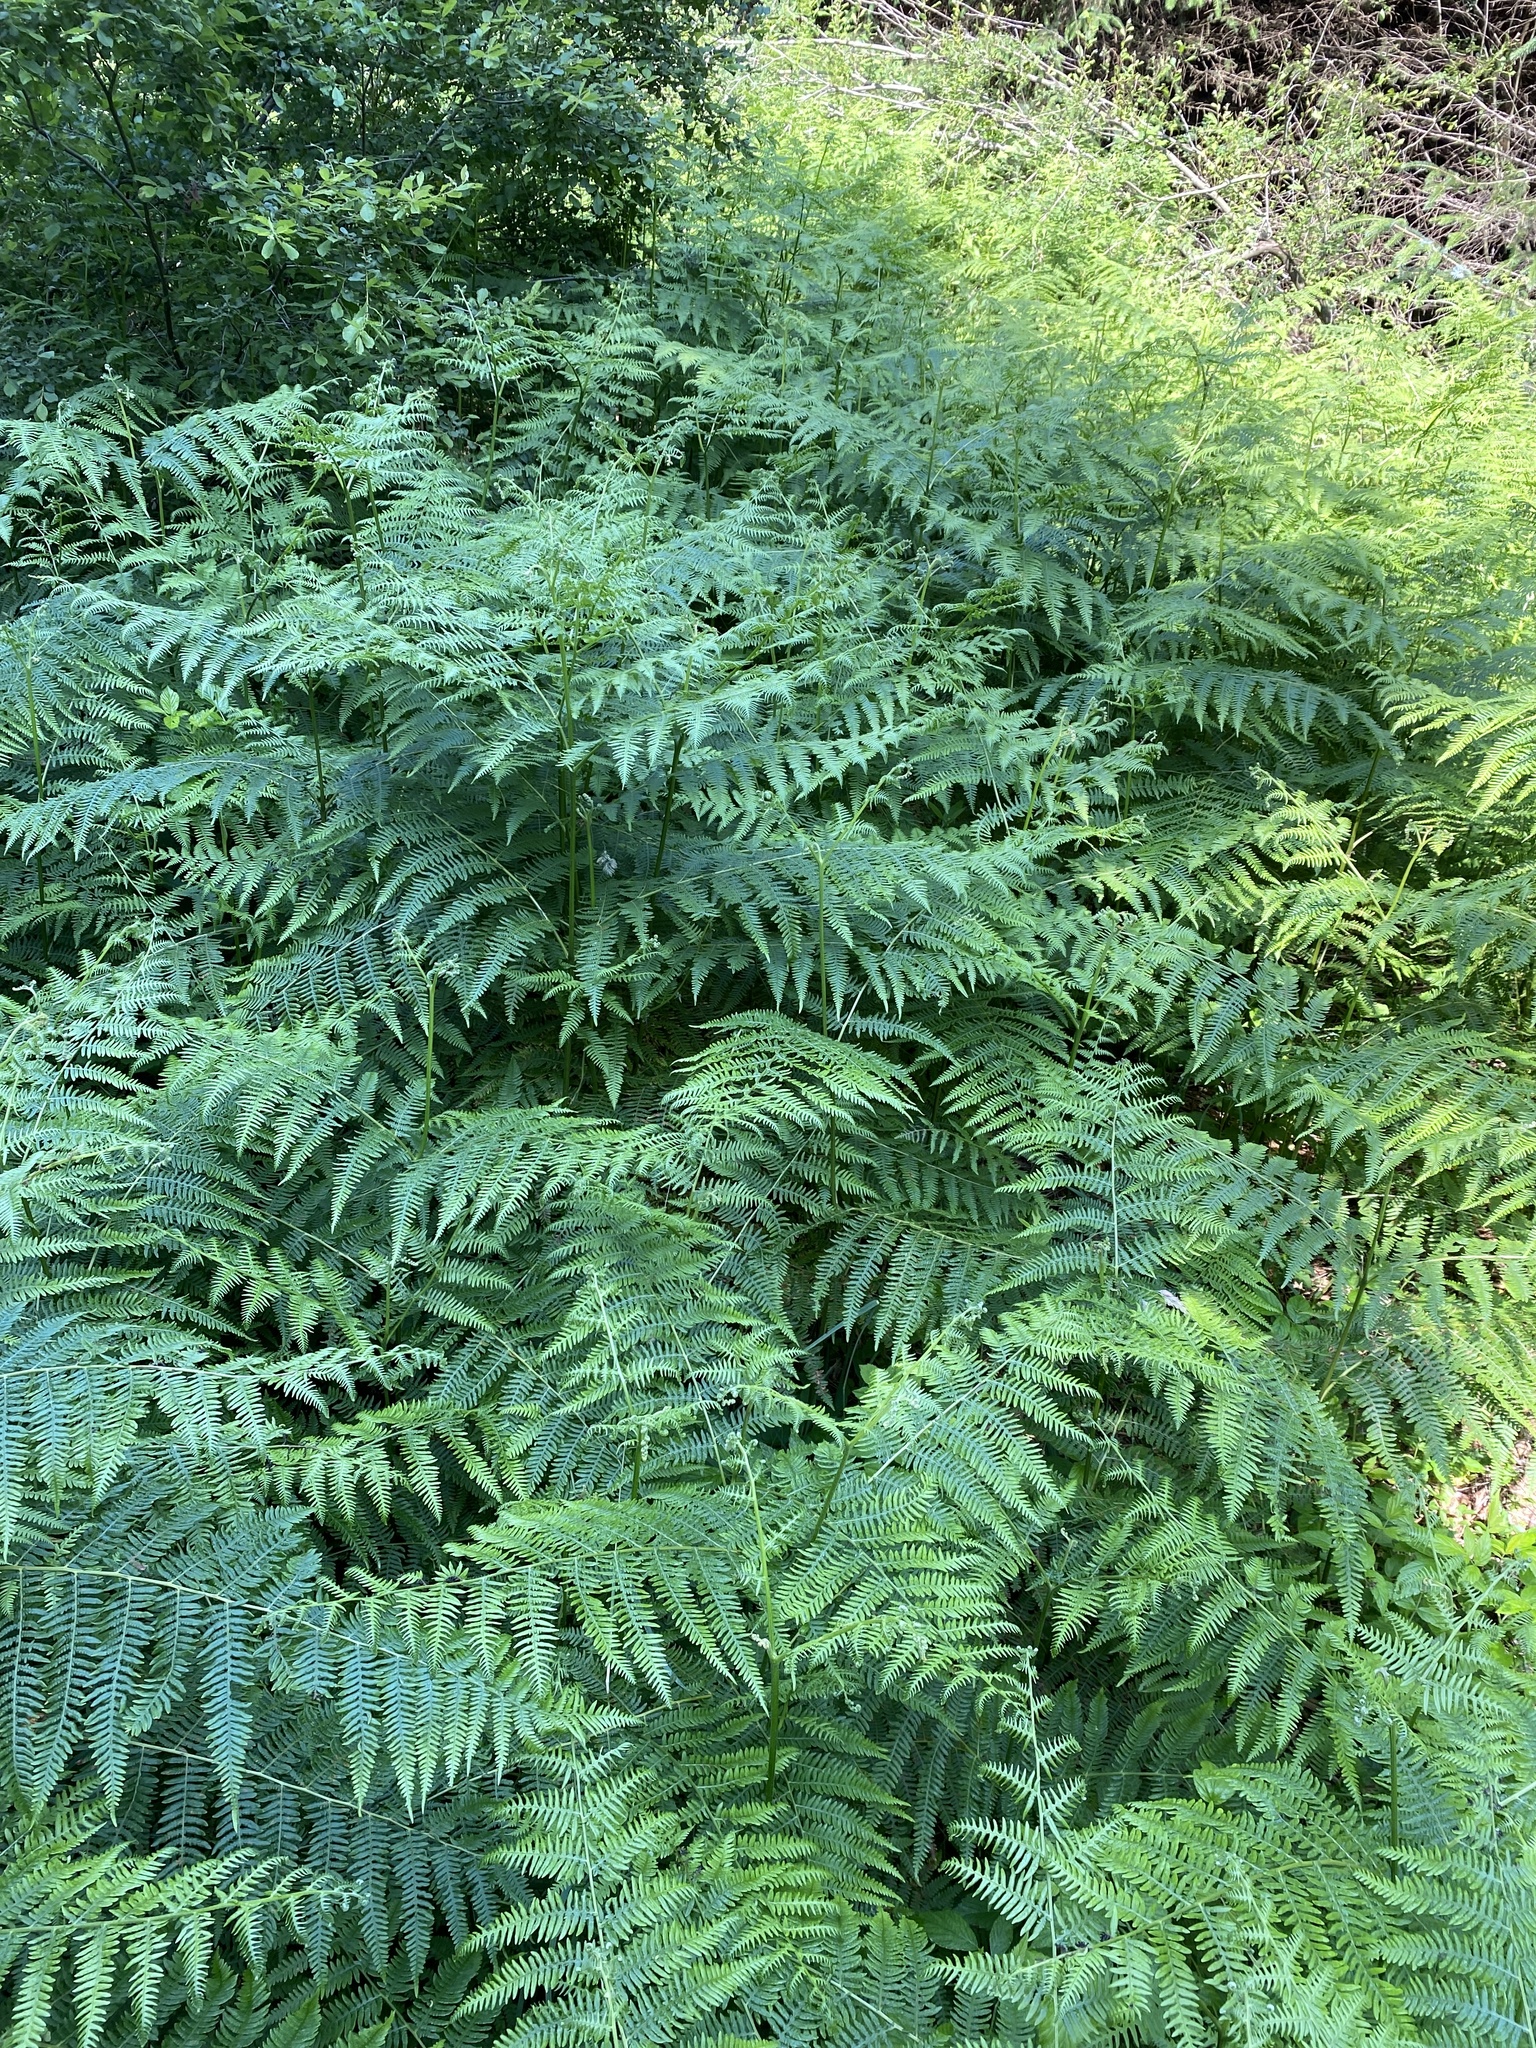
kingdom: Plantae
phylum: Tracheophyta
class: Polypodiopsida
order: Polypodiales
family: Dennstaedtiaceae
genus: Pteridium
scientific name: Pteridium aquilinum
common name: Bracken
